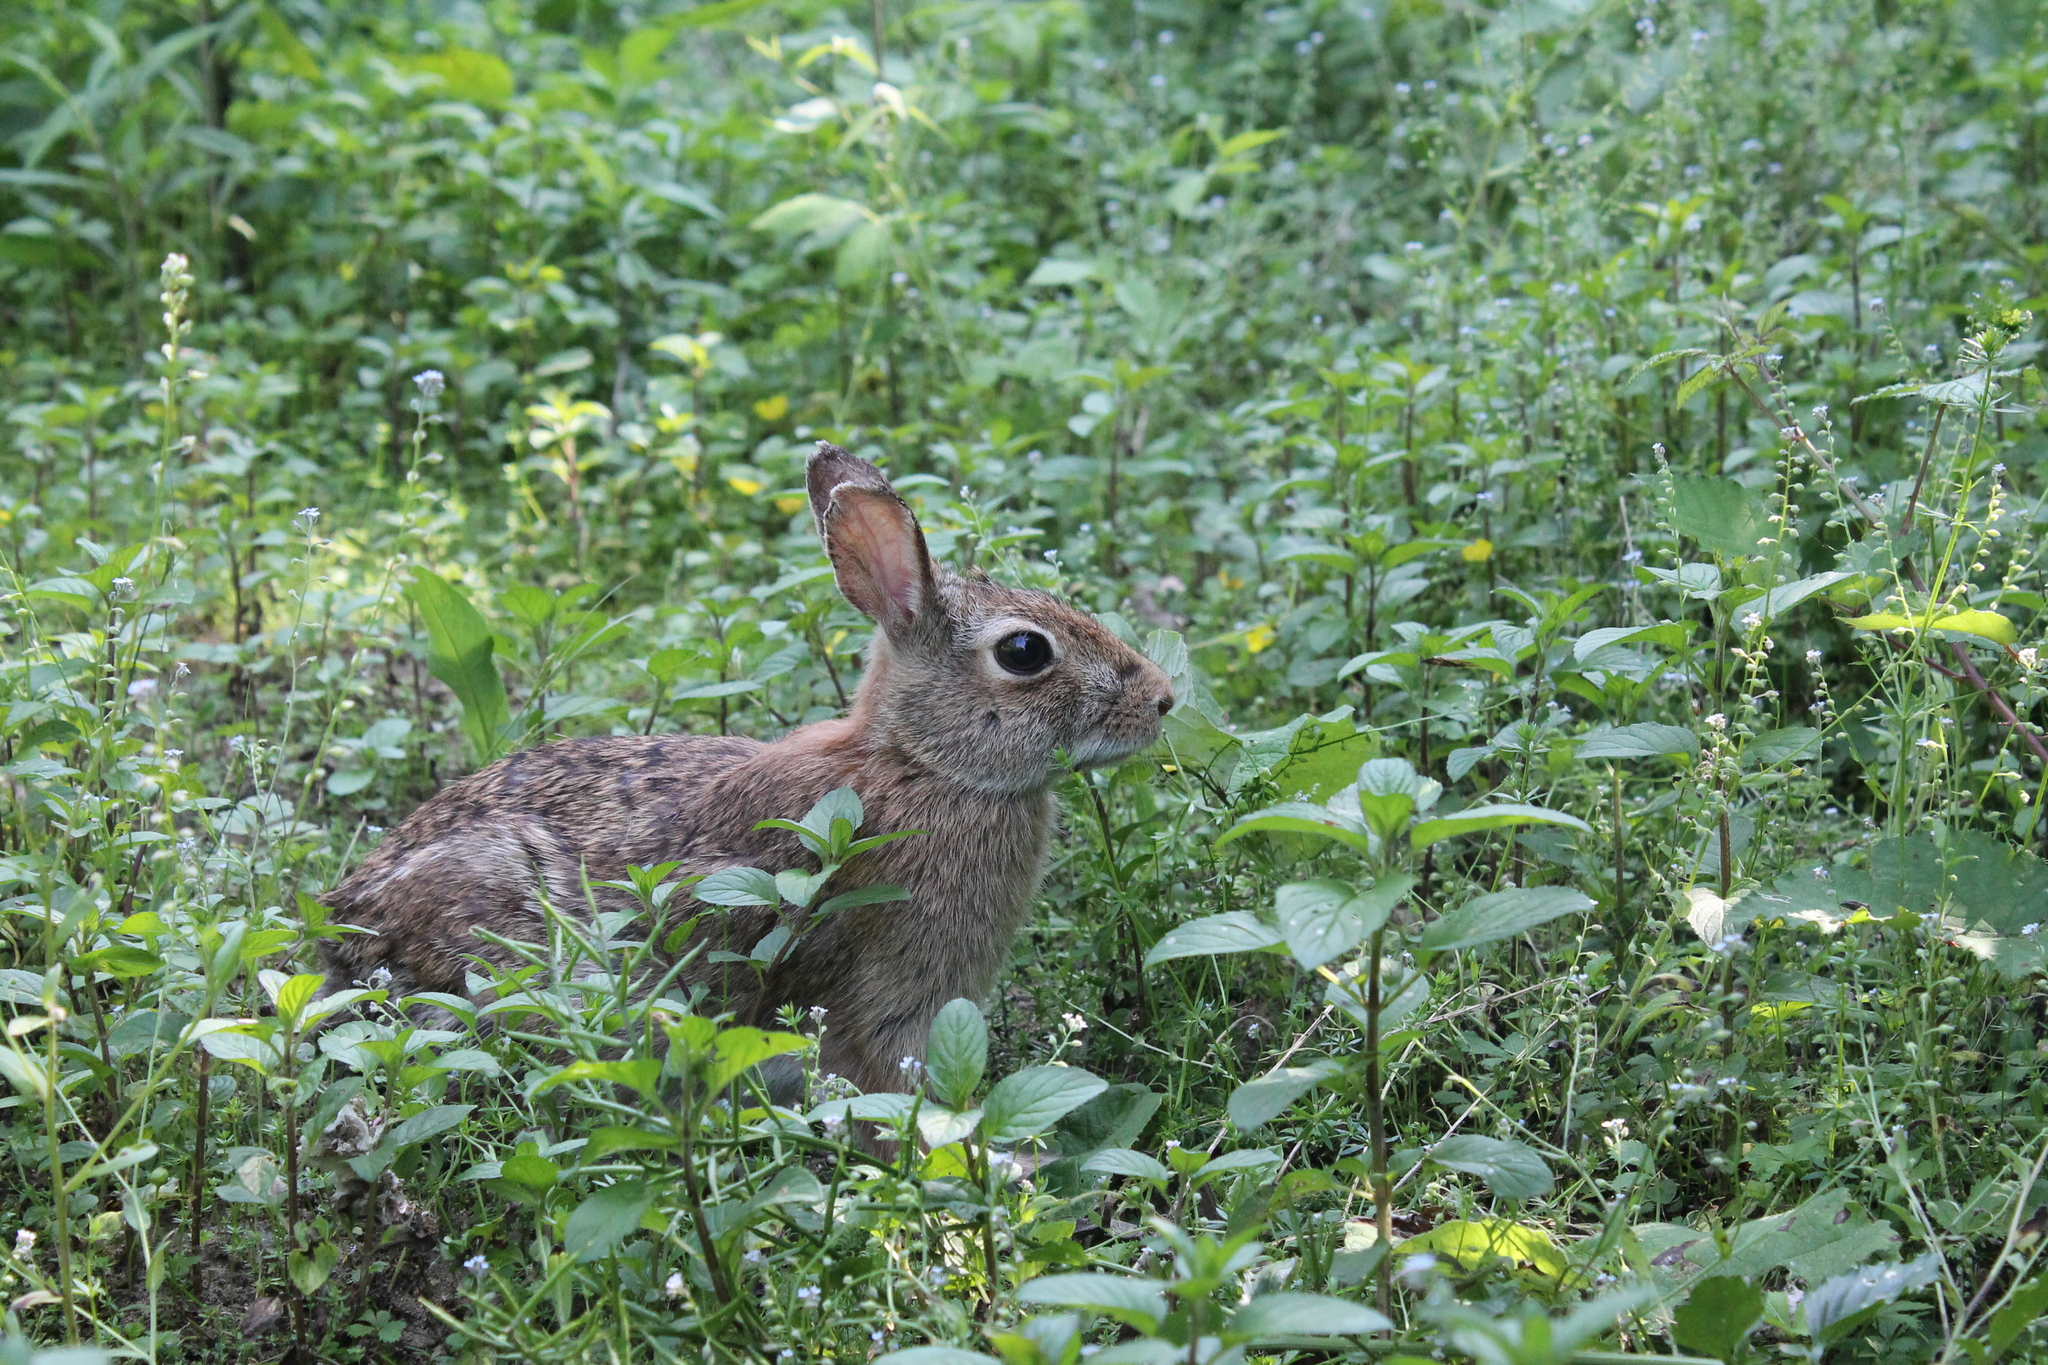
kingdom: Animalia
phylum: Chordata
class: Mammalia
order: Lagomorpha
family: Leporidae
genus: Sylvilagus
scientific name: Sylvilagus floridanus
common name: Eastern cottontail
